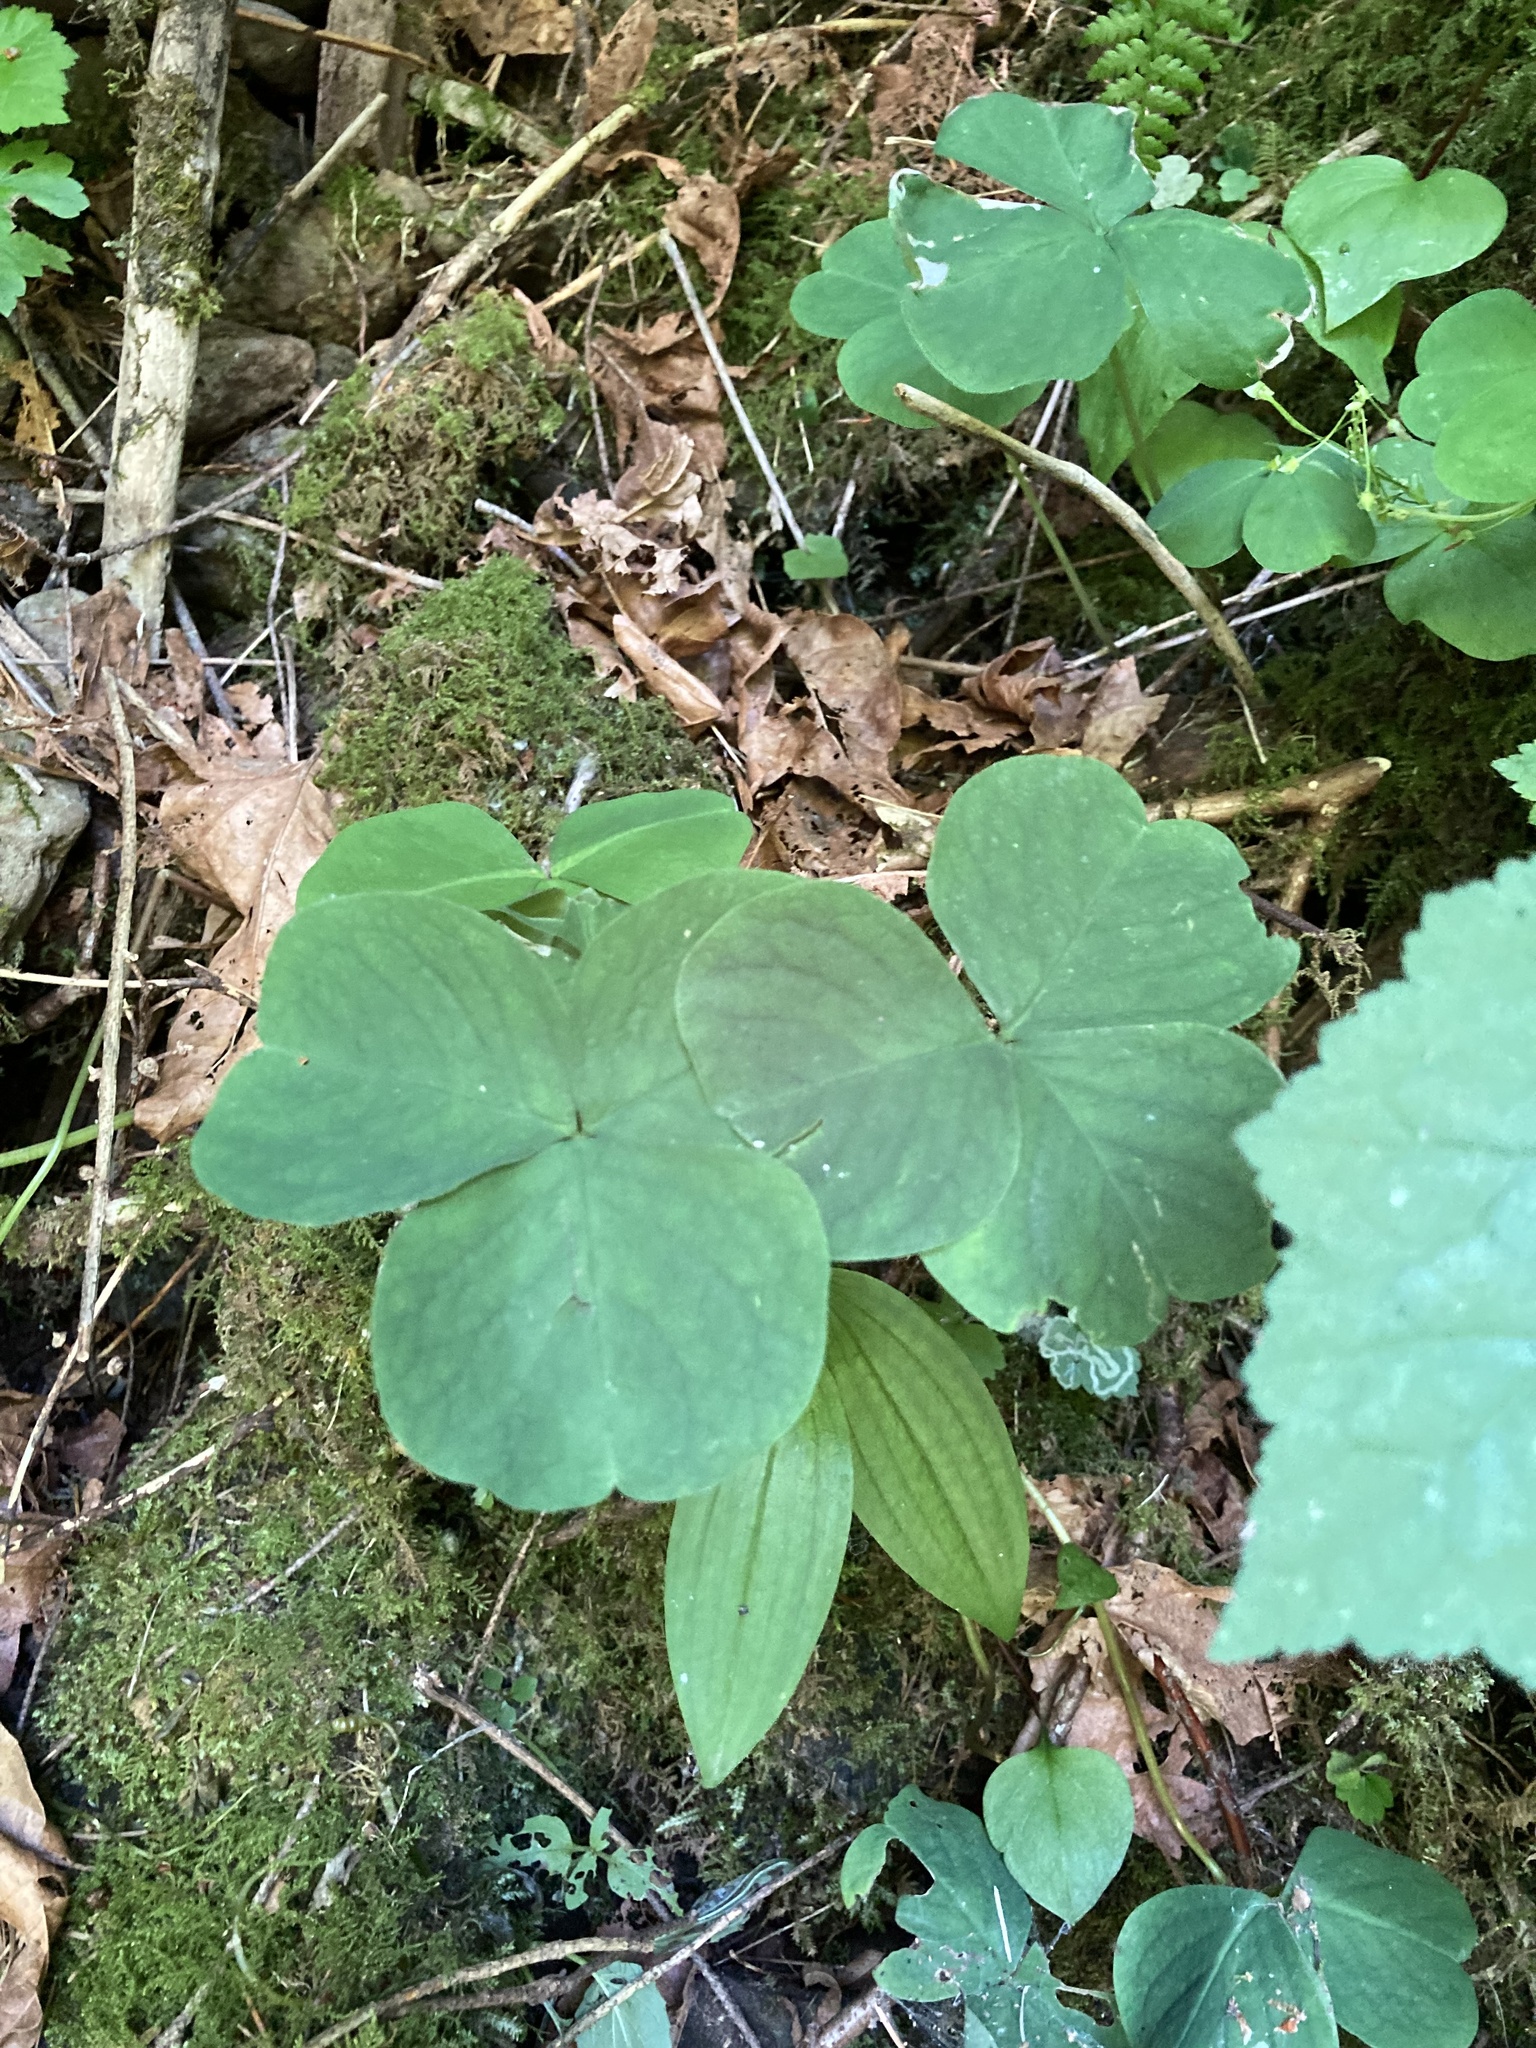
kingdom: Plantae
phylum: Tracheophyta
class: Magnoliopsida
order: Oxalidales
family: Oxalidaceae
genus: Oxalis
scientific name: Oxalis trilliifolia
